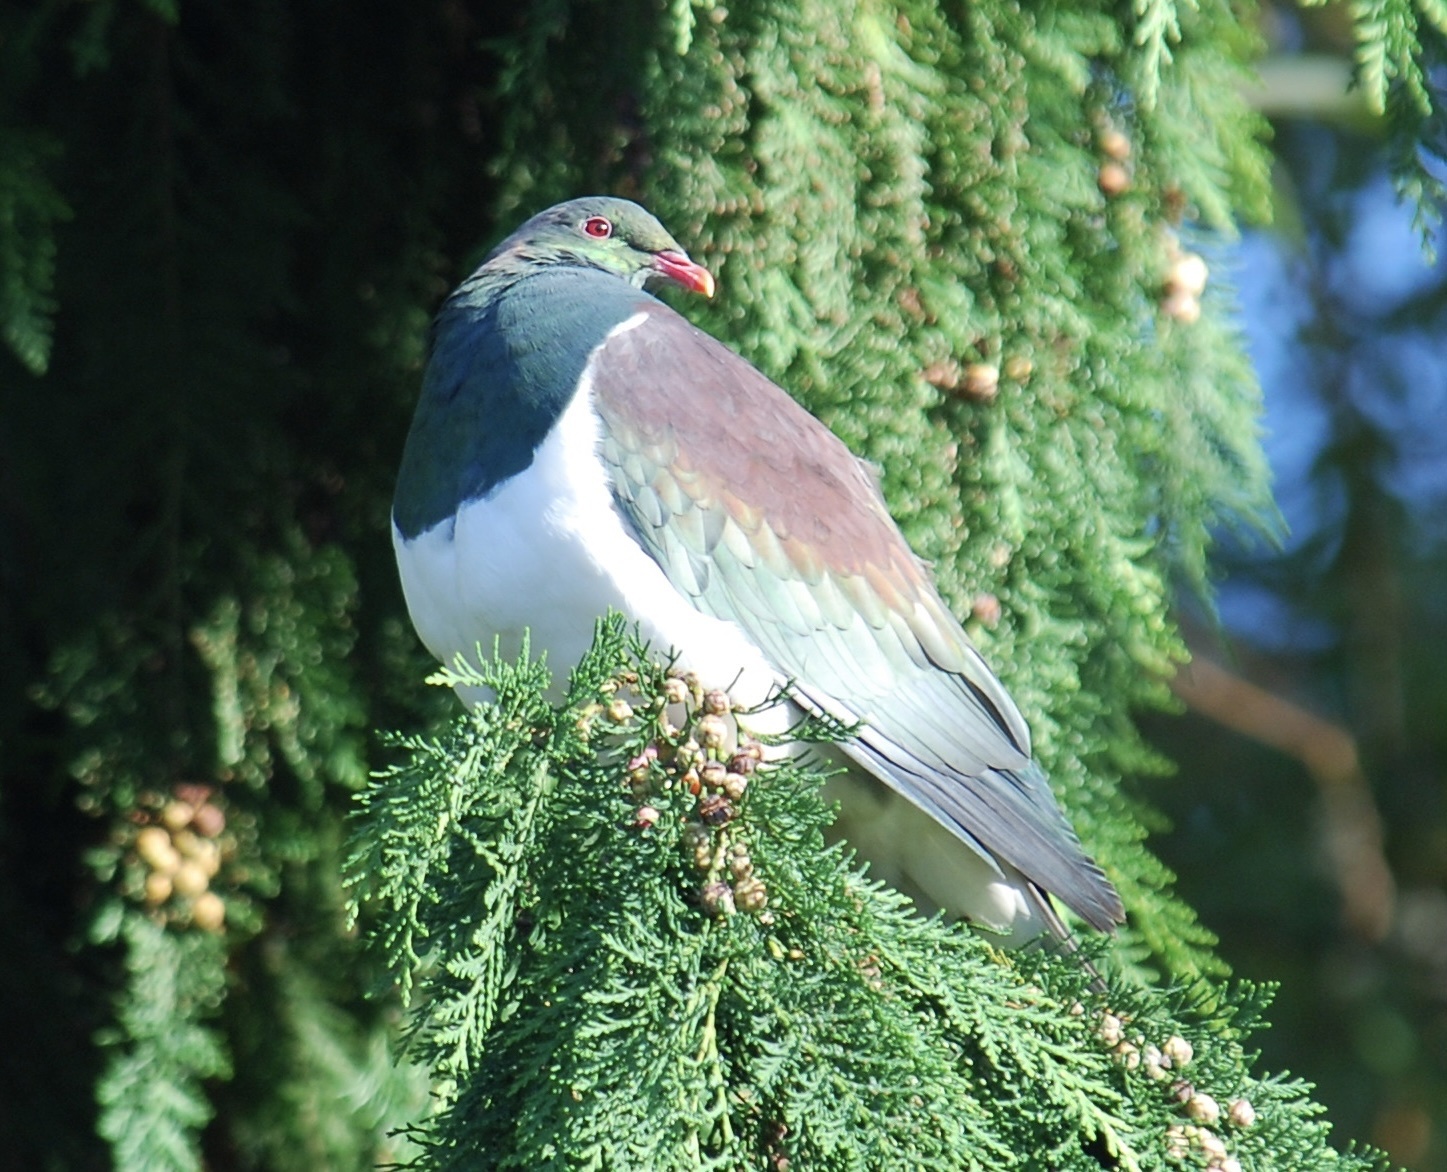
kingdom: Animalia
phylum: Chordata
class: Aves
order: Columbiformes
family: Columbidae
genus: Hemiphaga
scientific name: Hemiphaga novaeseelandiae
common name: New zealand pigeon
